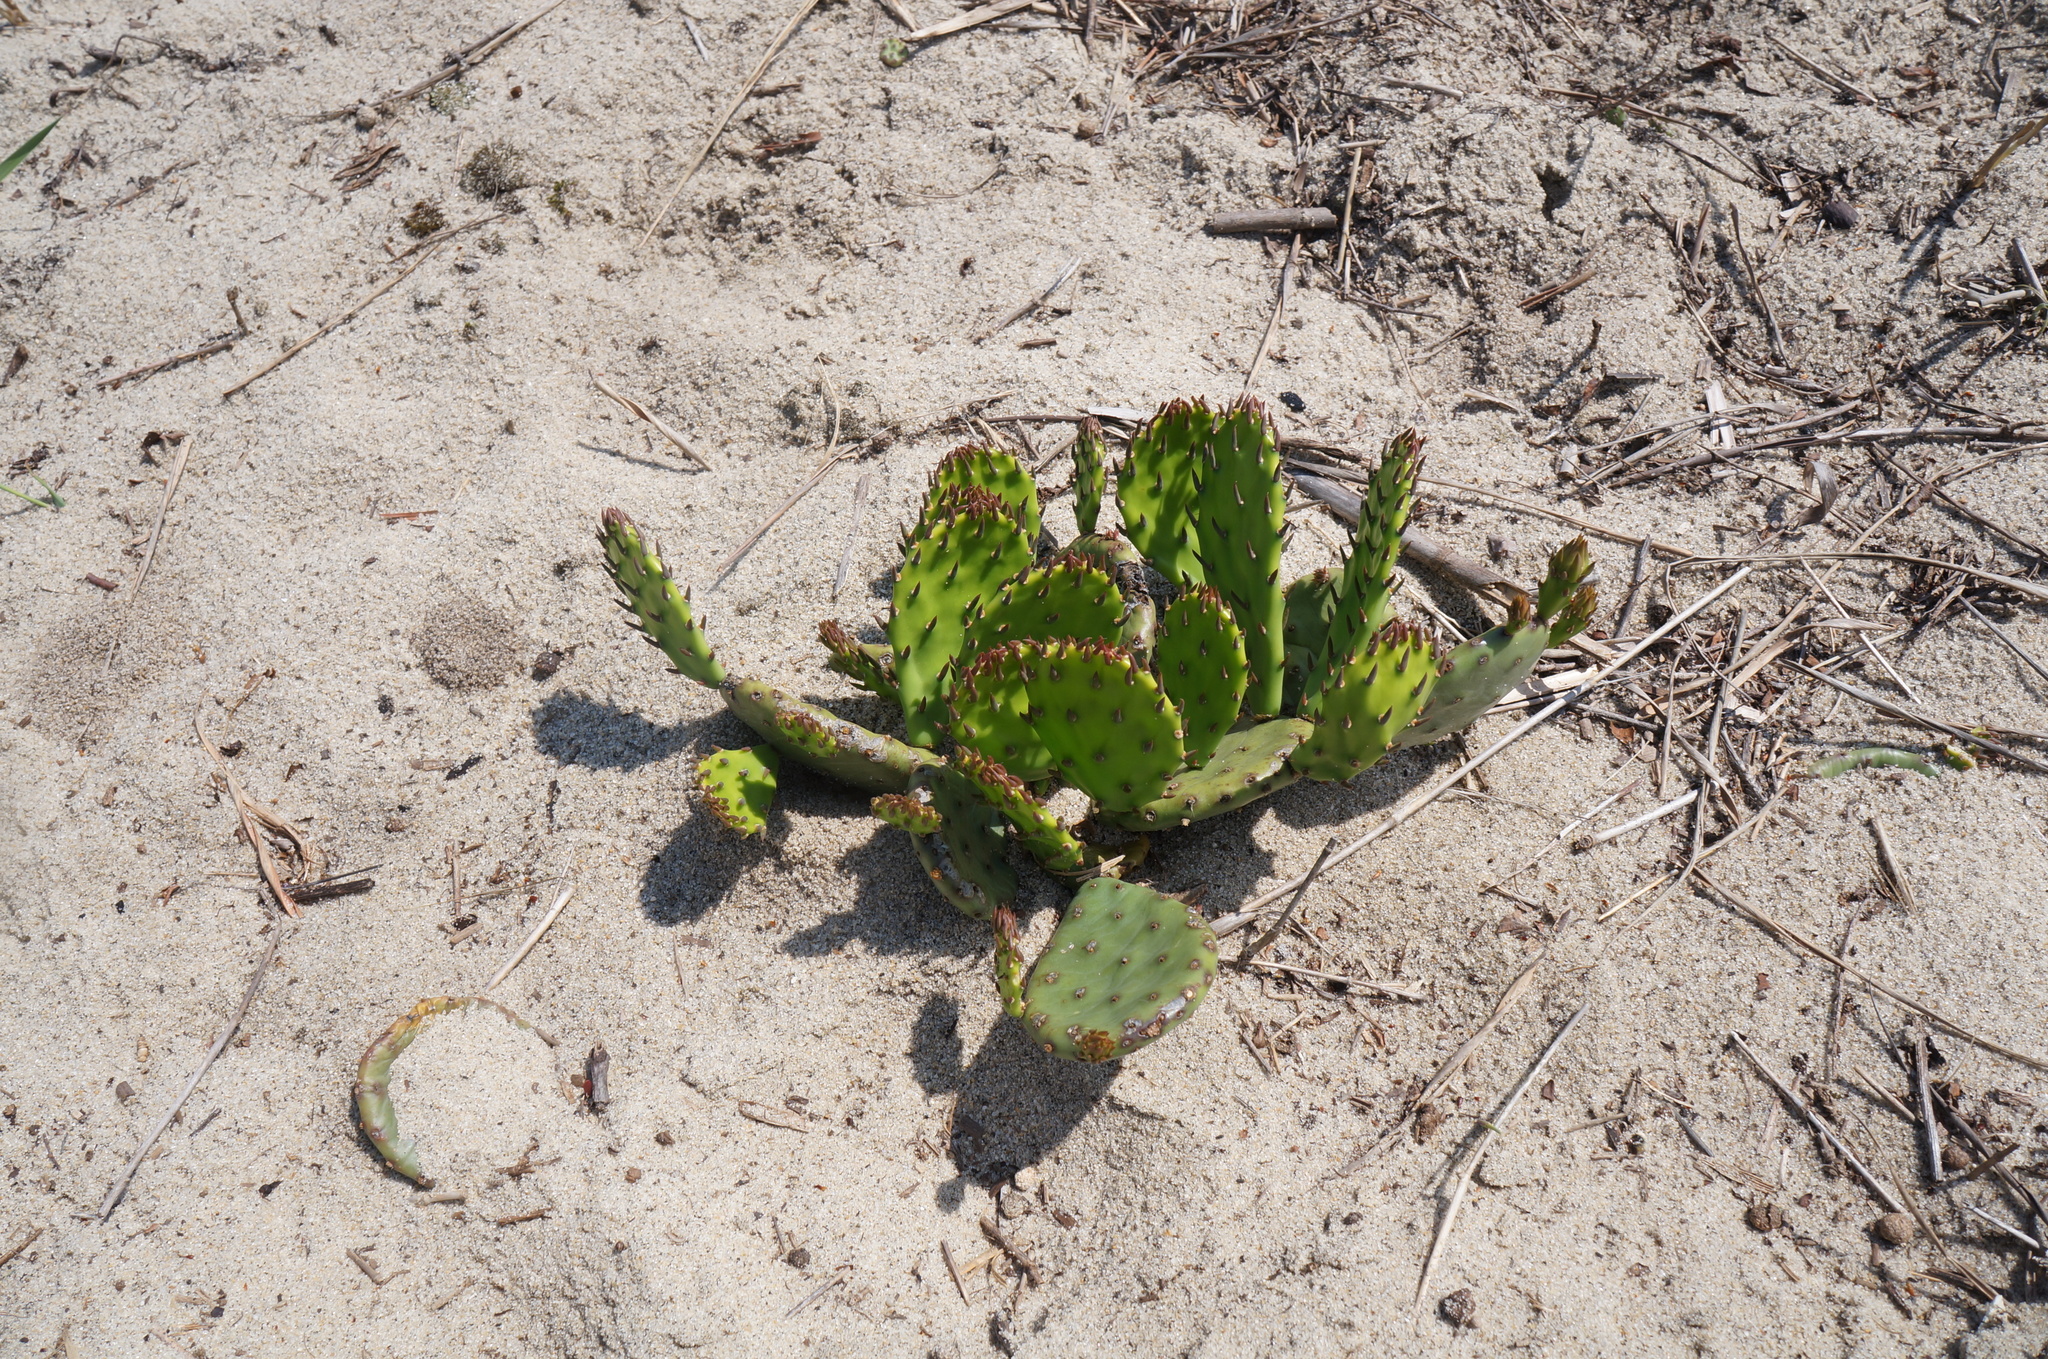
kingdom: Plantae
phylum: Tracheophyta
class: Magnoliopsida
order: Caryophyllales
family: Cactaceae
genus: Opuntia
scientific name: Opuntia humifusa
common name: Eastern prickly-pear
